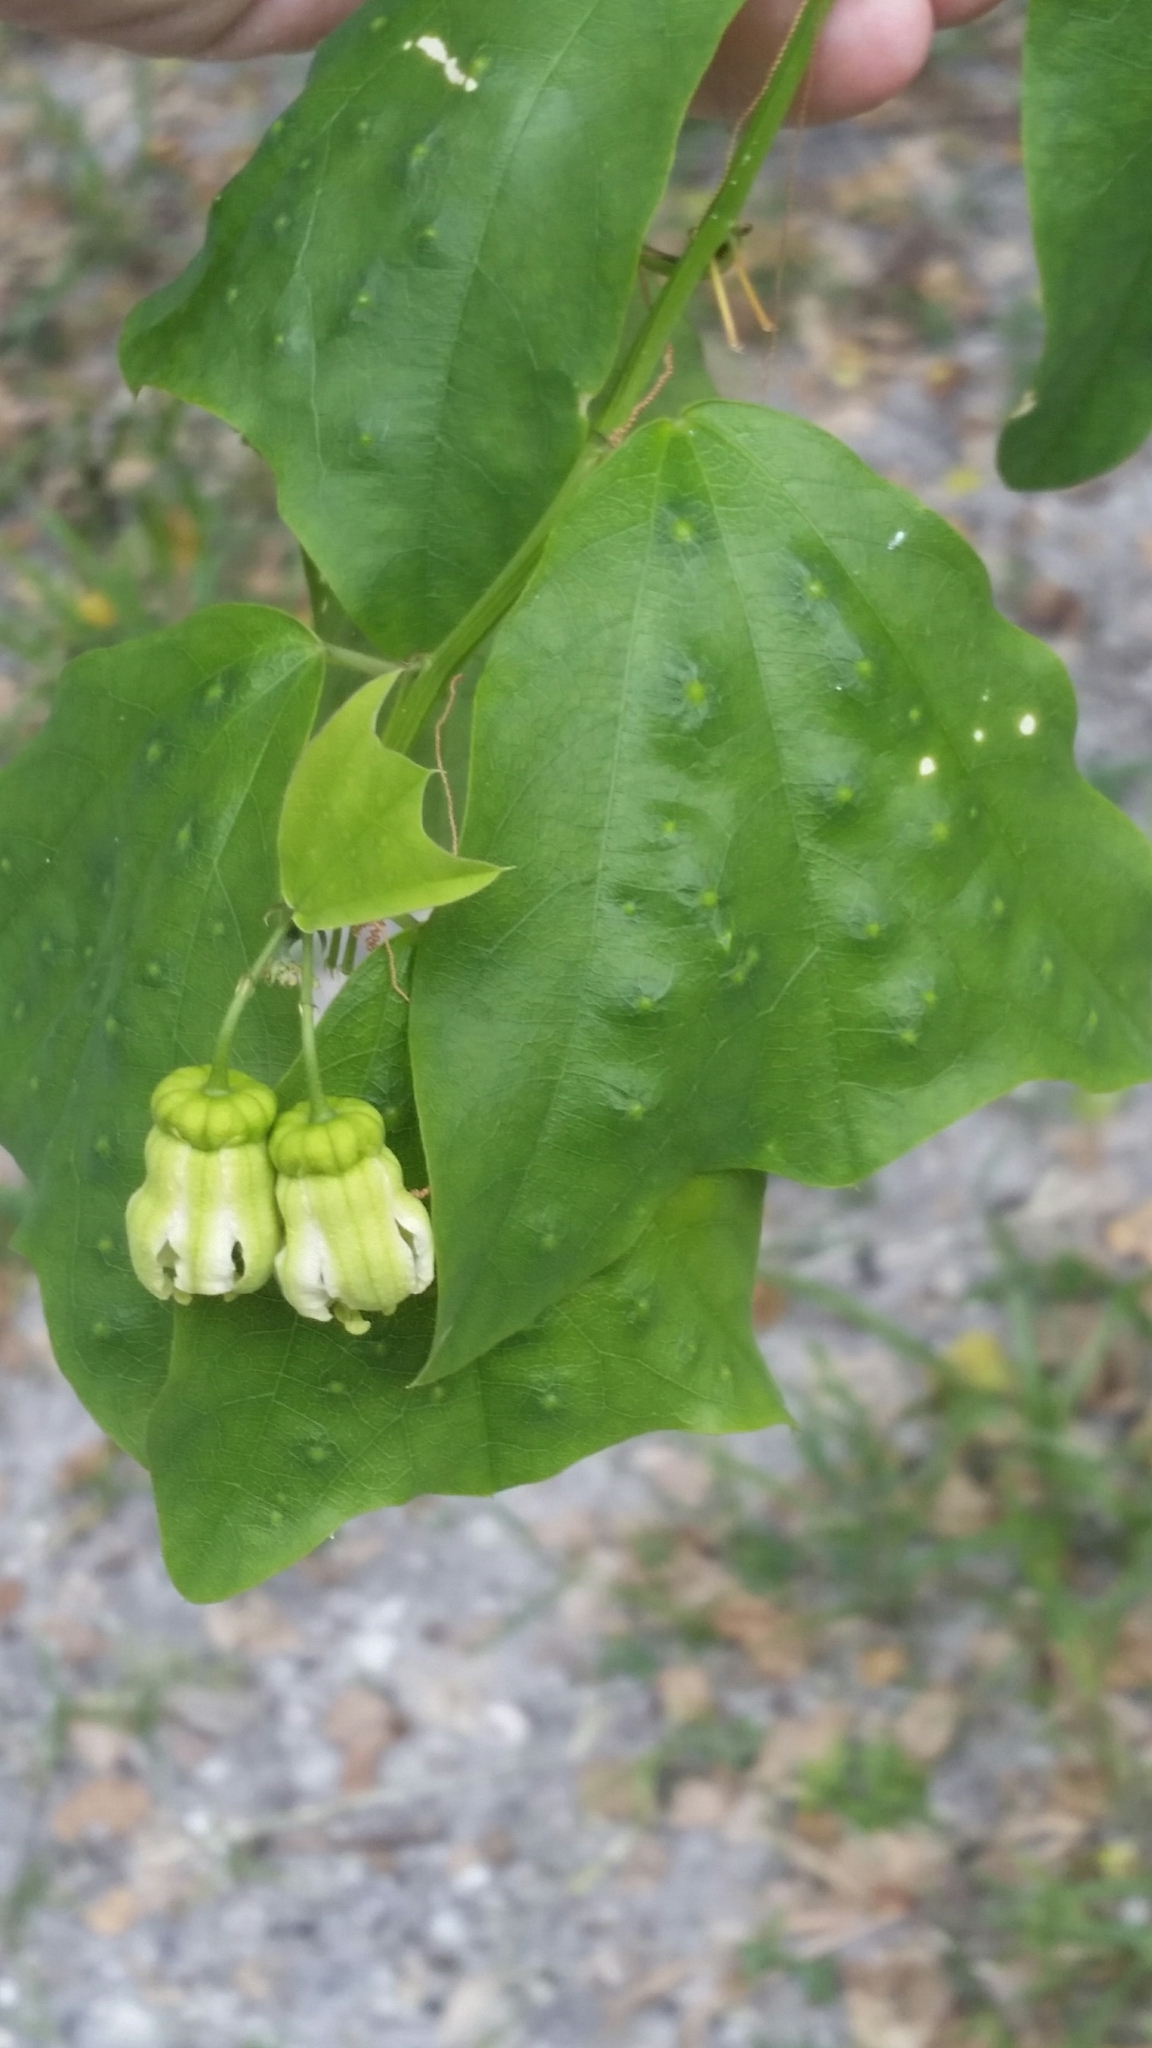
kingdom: Plantae
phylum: Tracheophyta
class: Magnoliopsida
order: Malpighiales
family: Passifloraceae
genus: Passiflora
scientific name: Passiflora biflora
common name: Twoflower passionflower
